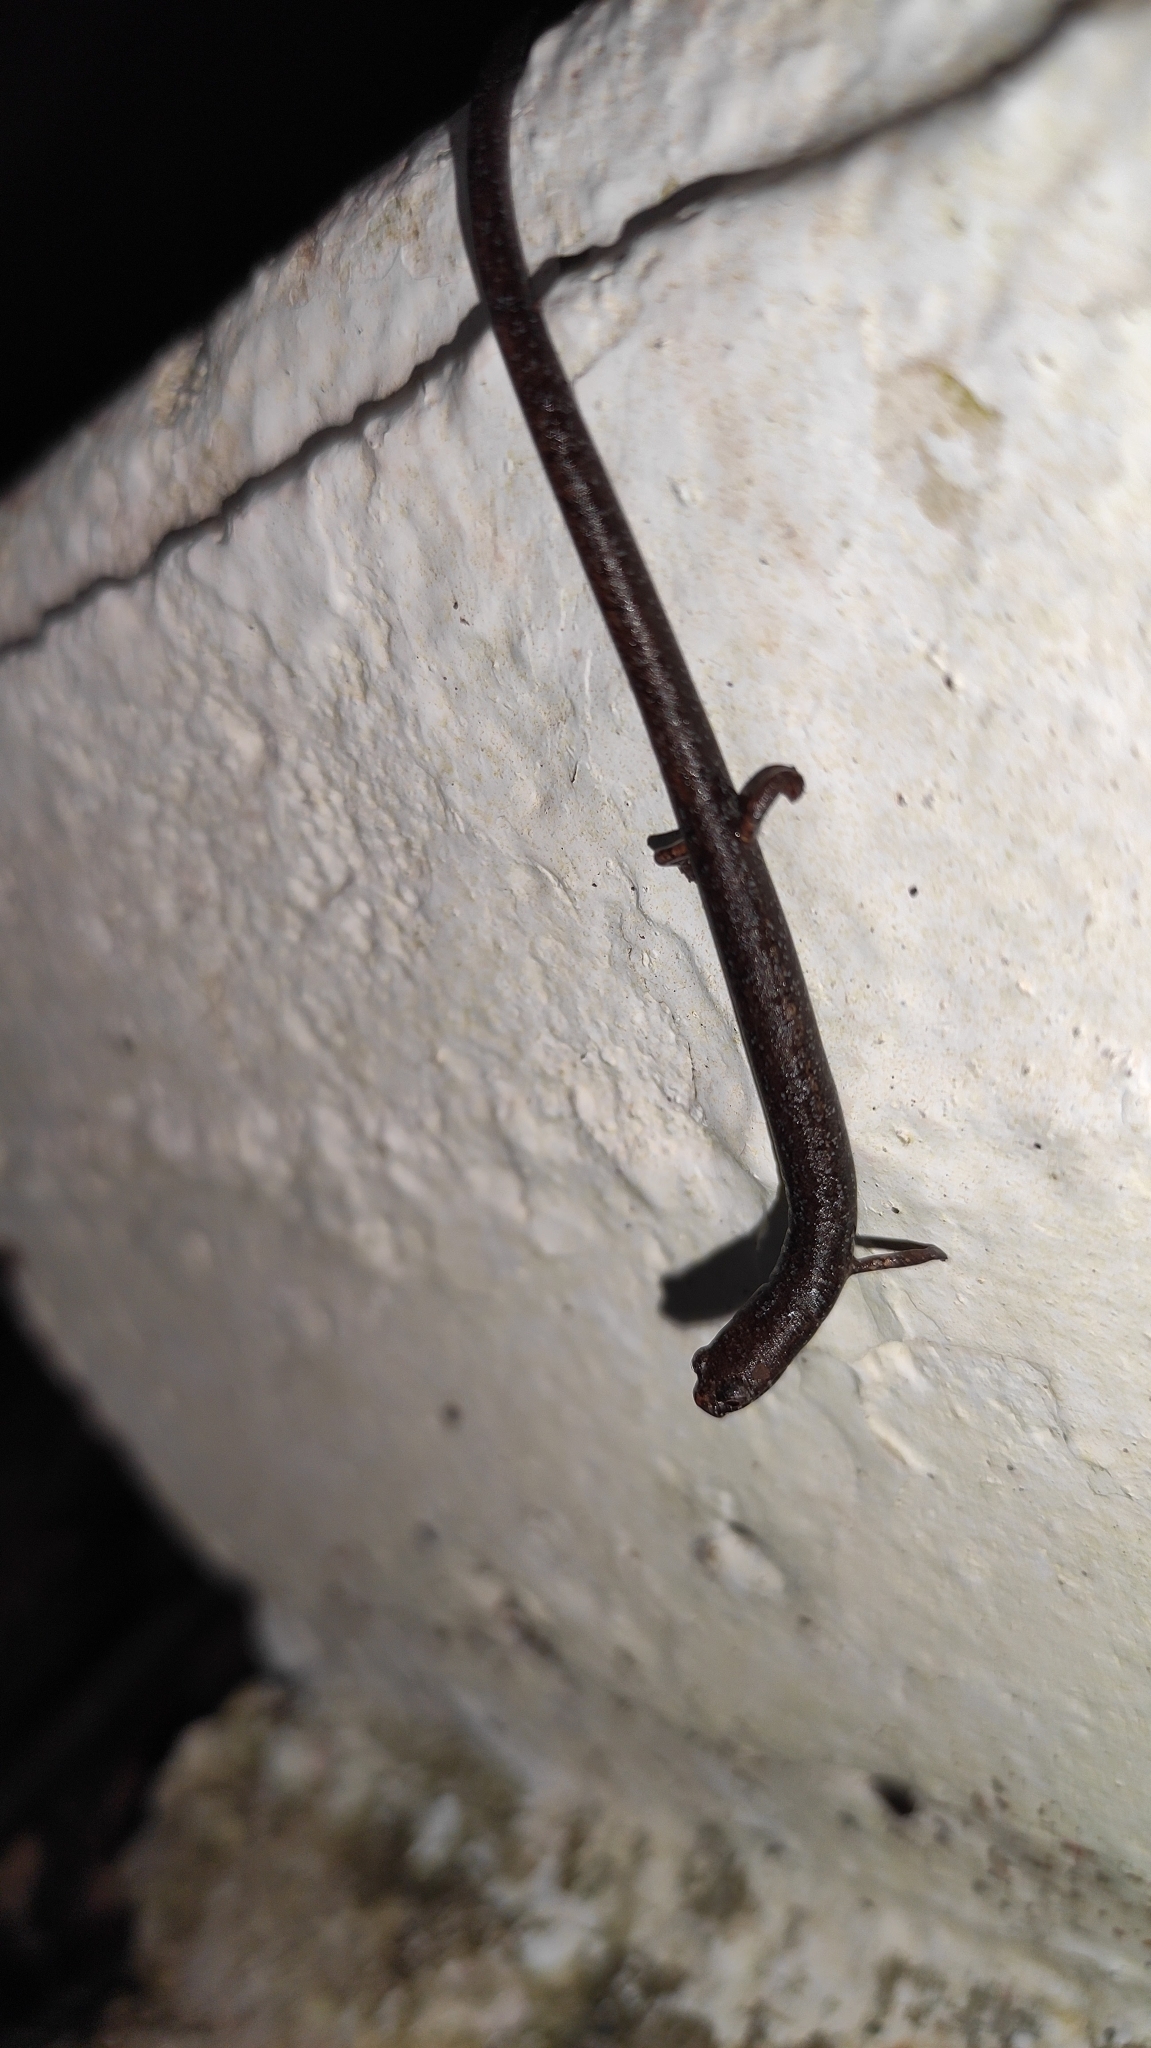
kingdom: Animalia
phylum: Chordata
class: Amphibia
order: Caudata
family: Plethodontidae
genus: Oedipina
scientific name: Oedipina
